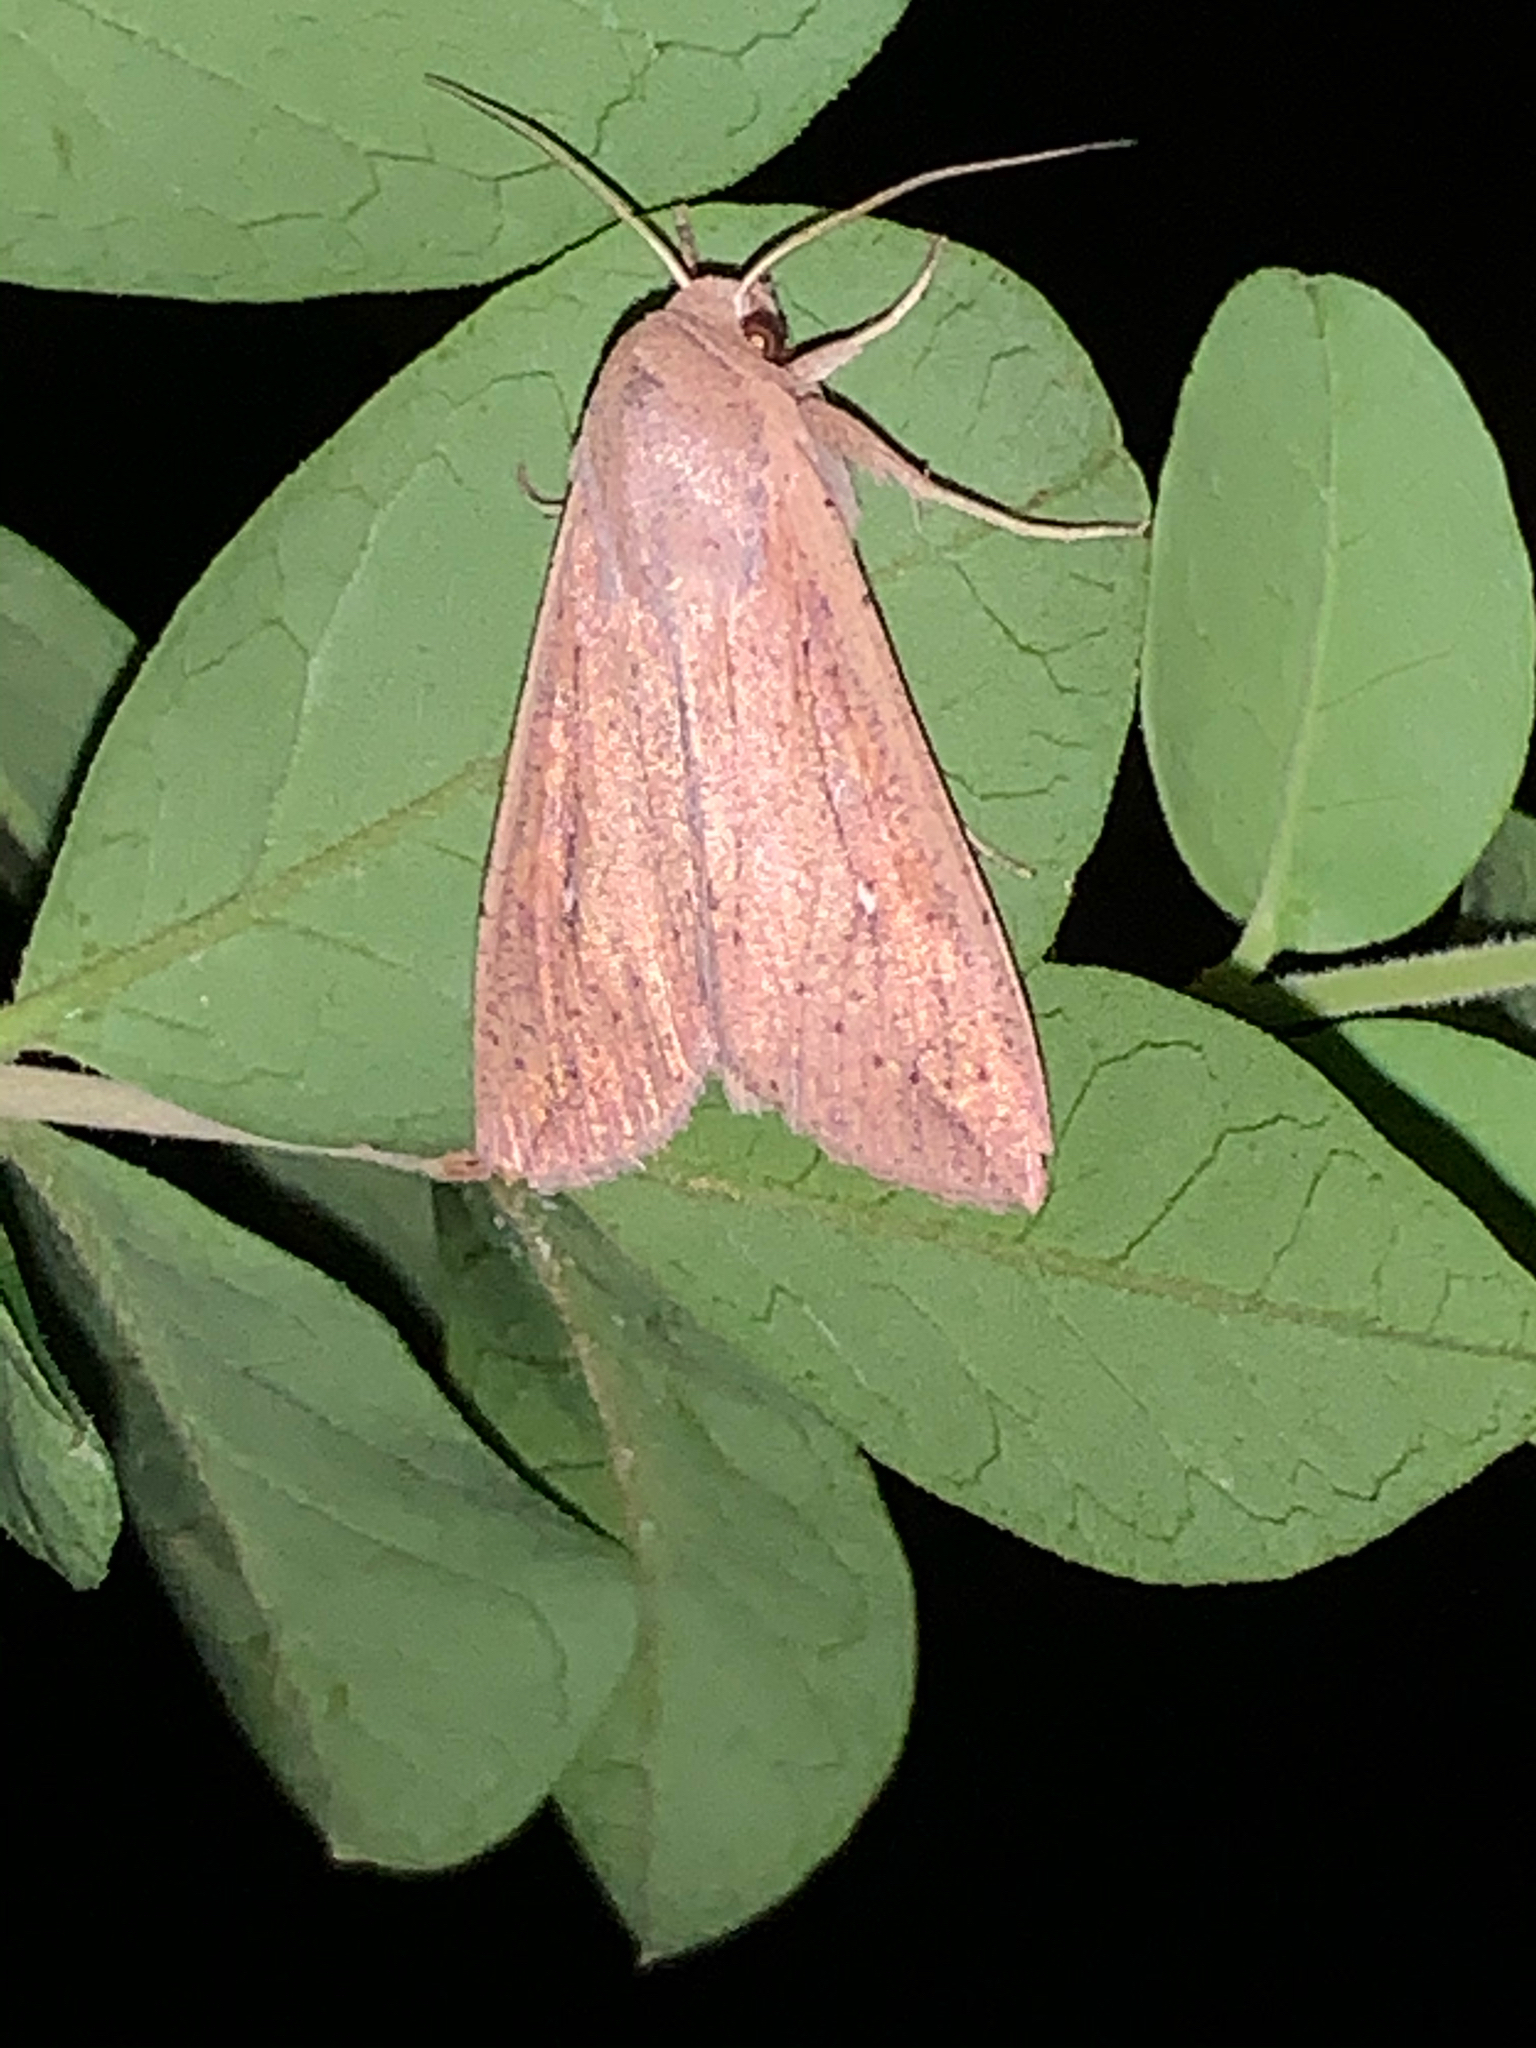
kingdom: Animalia
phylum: Arthropoda
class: Insecta
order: Lepidoptera
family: Noctuidae
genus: Mythimna
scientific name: Mythimna unipuncta
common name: White-speck
